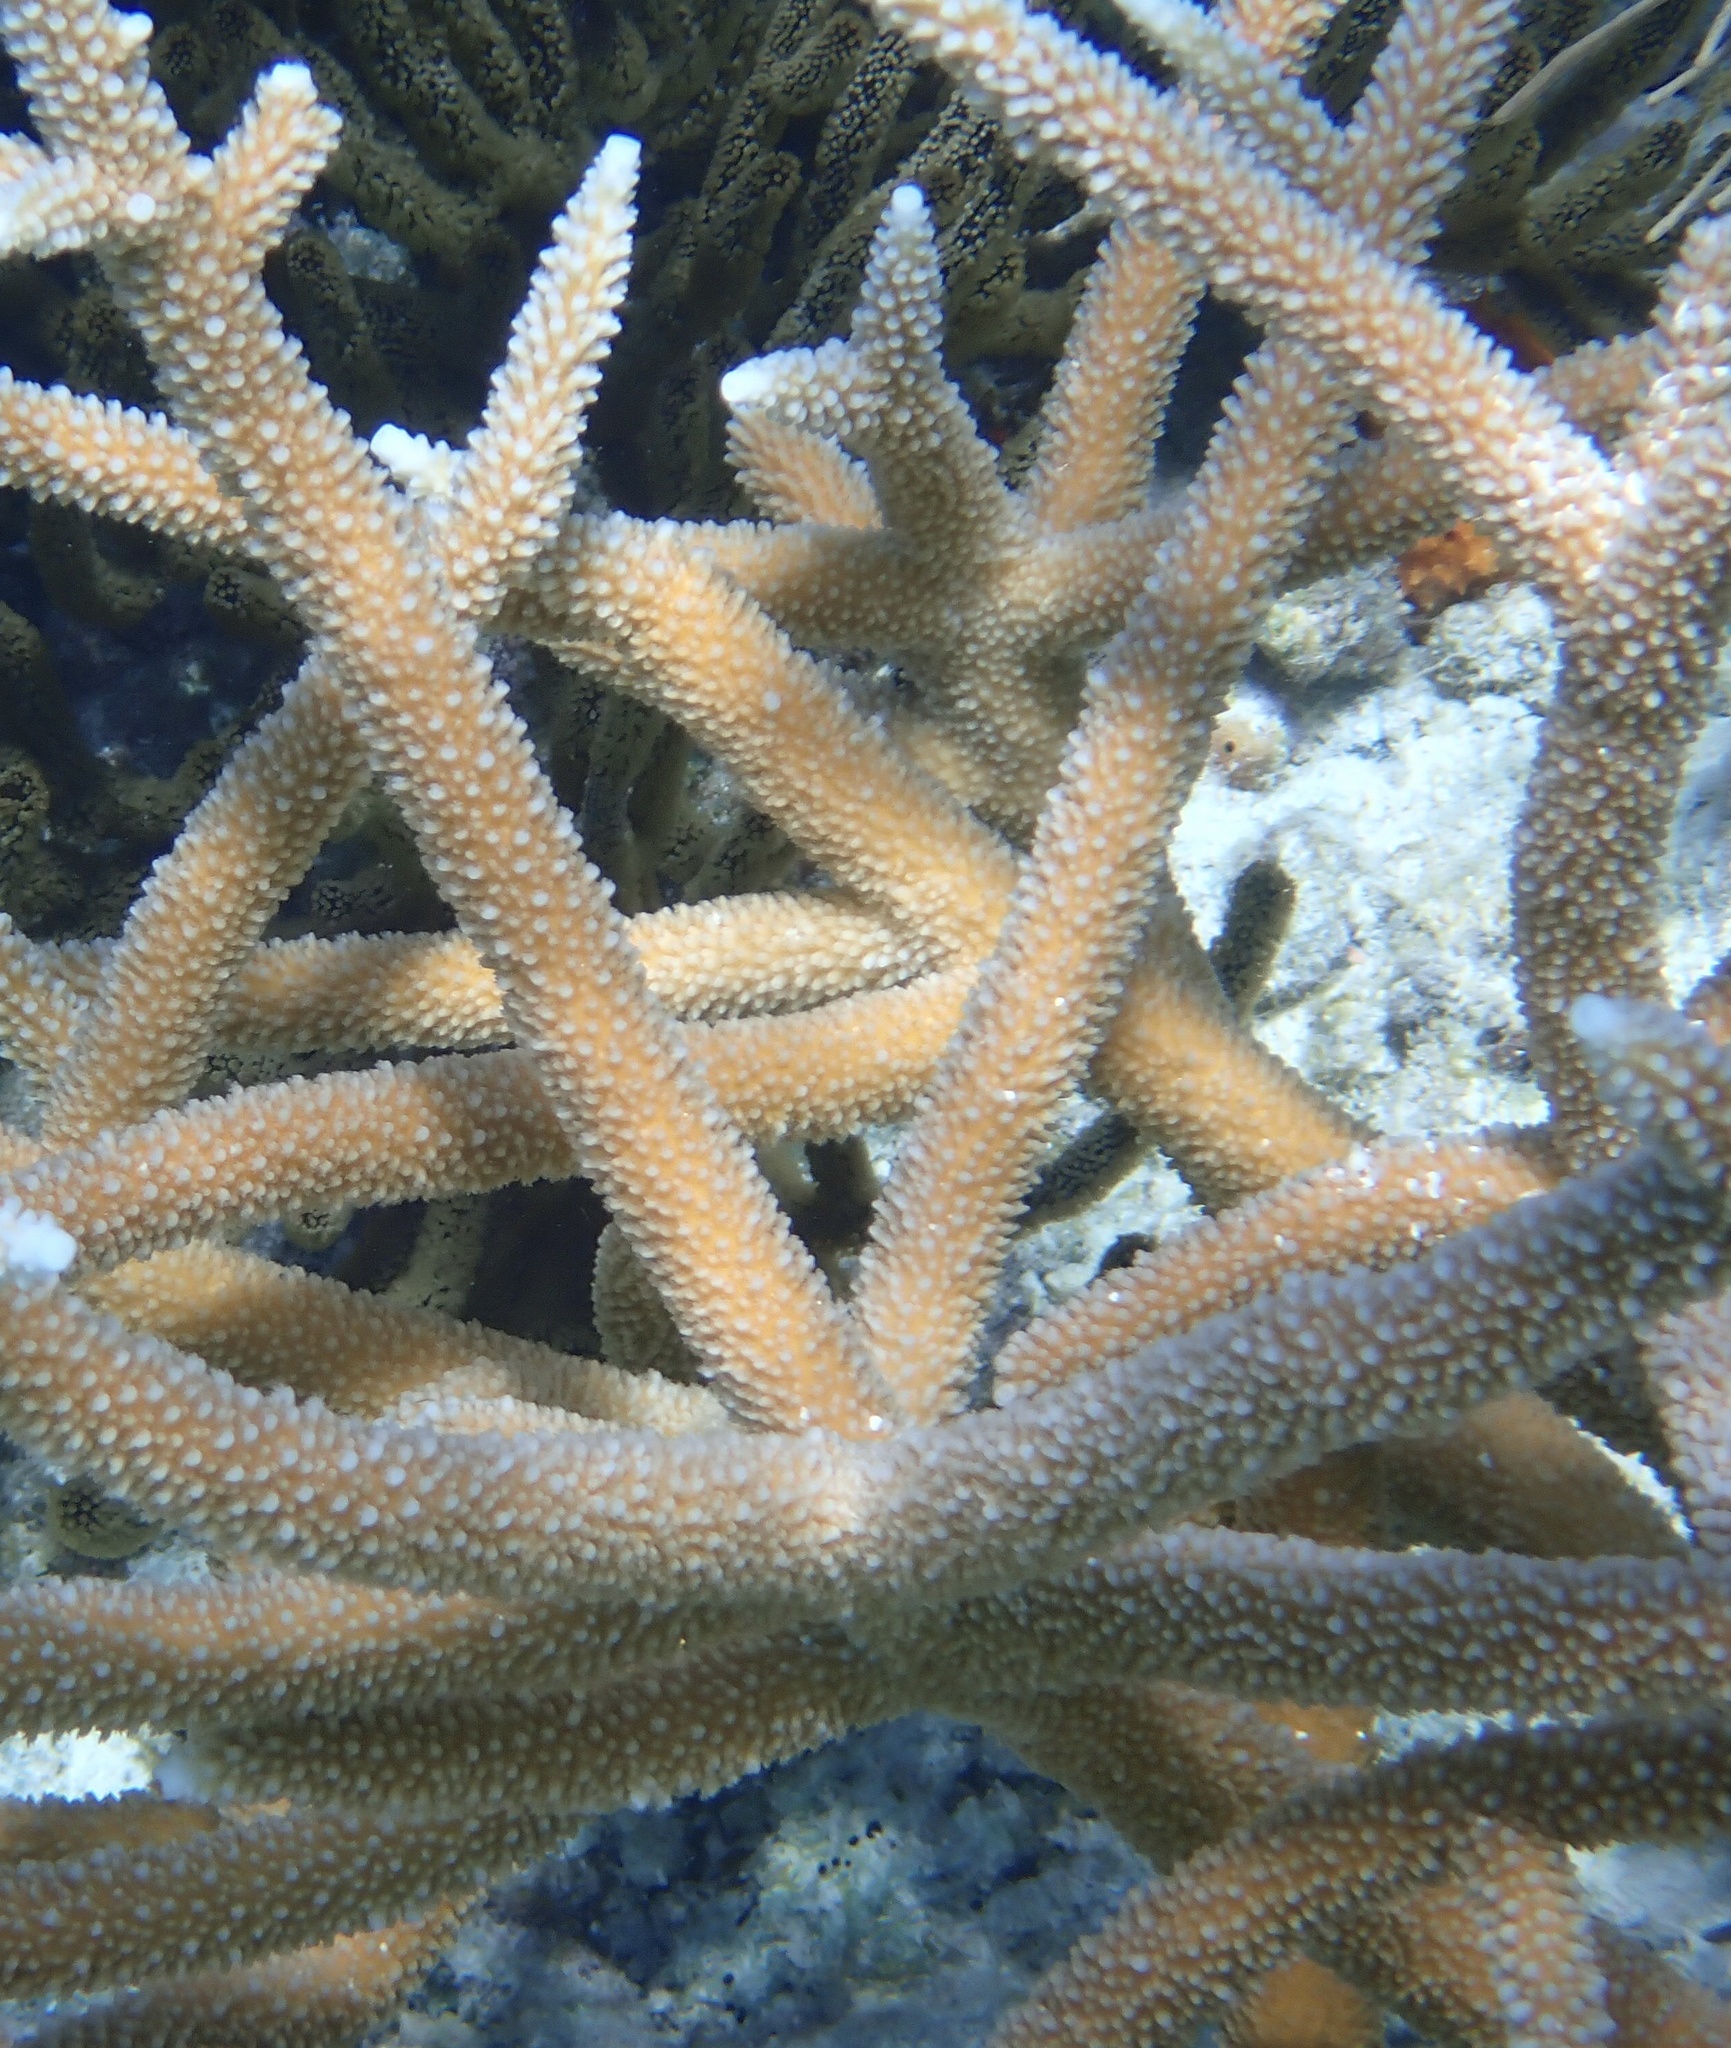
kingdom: Animalia
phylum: Cnidaria
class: Anthozoa
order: Scleractinia
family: Acroporidae
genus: Acropora
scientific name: Acropora cervicornis
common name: Staghorn coral
